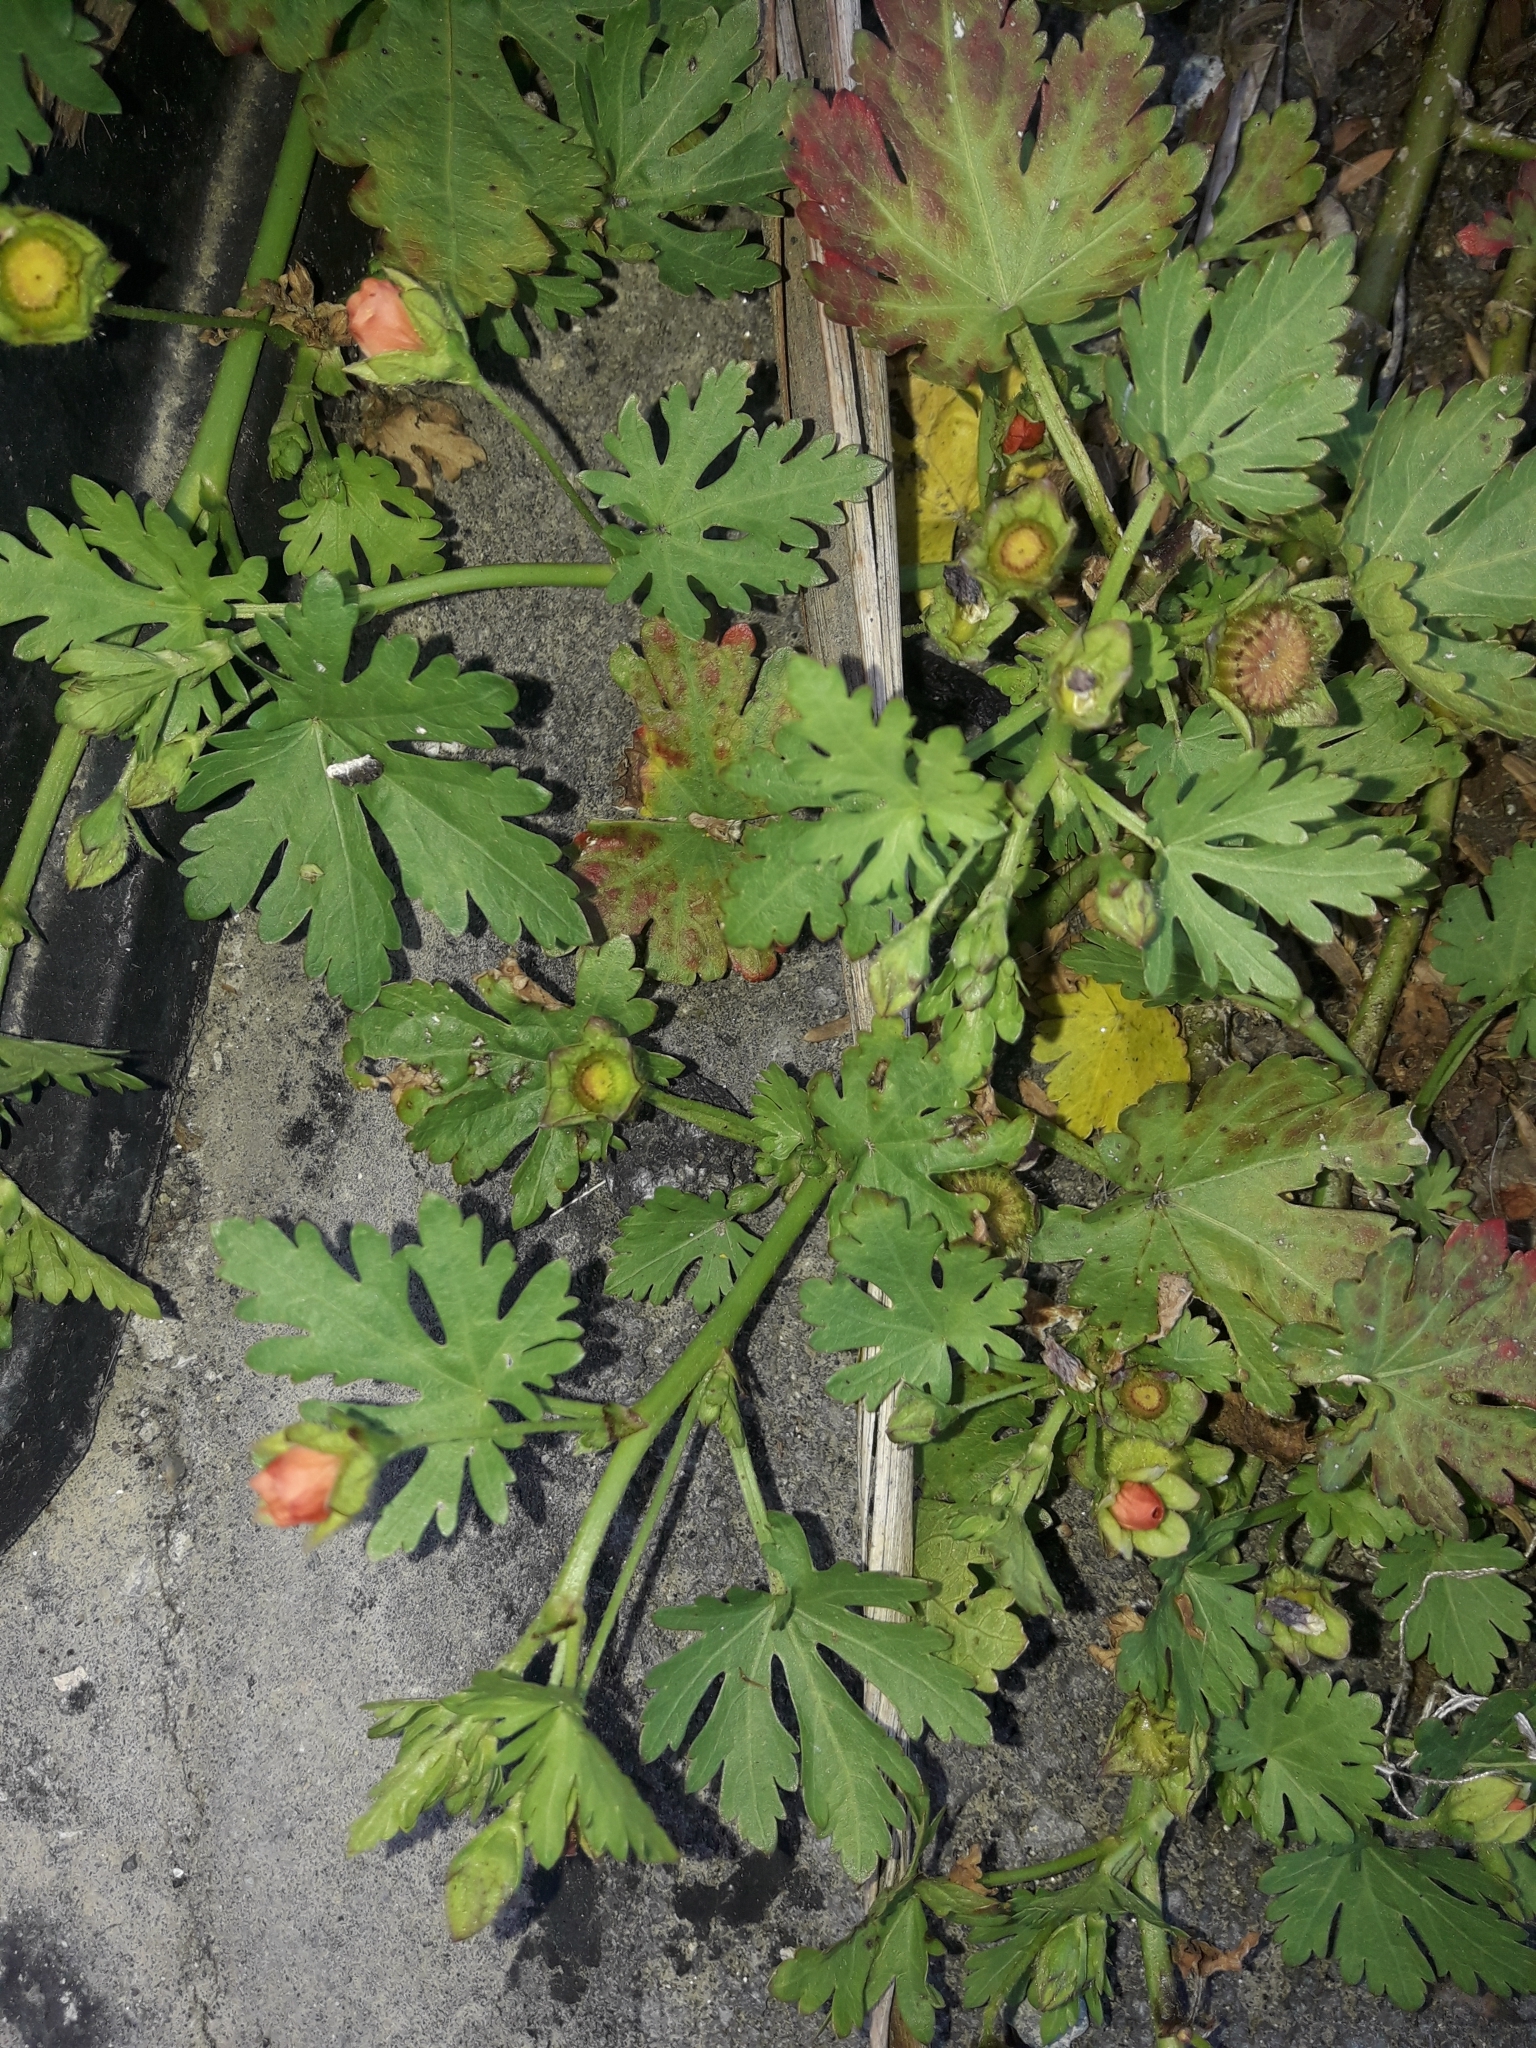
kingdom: Plantae
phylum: Tracheophyta
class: Magnoliopsida
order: Malvales
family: Malvaceae
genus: Modiola
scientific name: Modiola caroliniana
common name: Carolina bristlemallow
